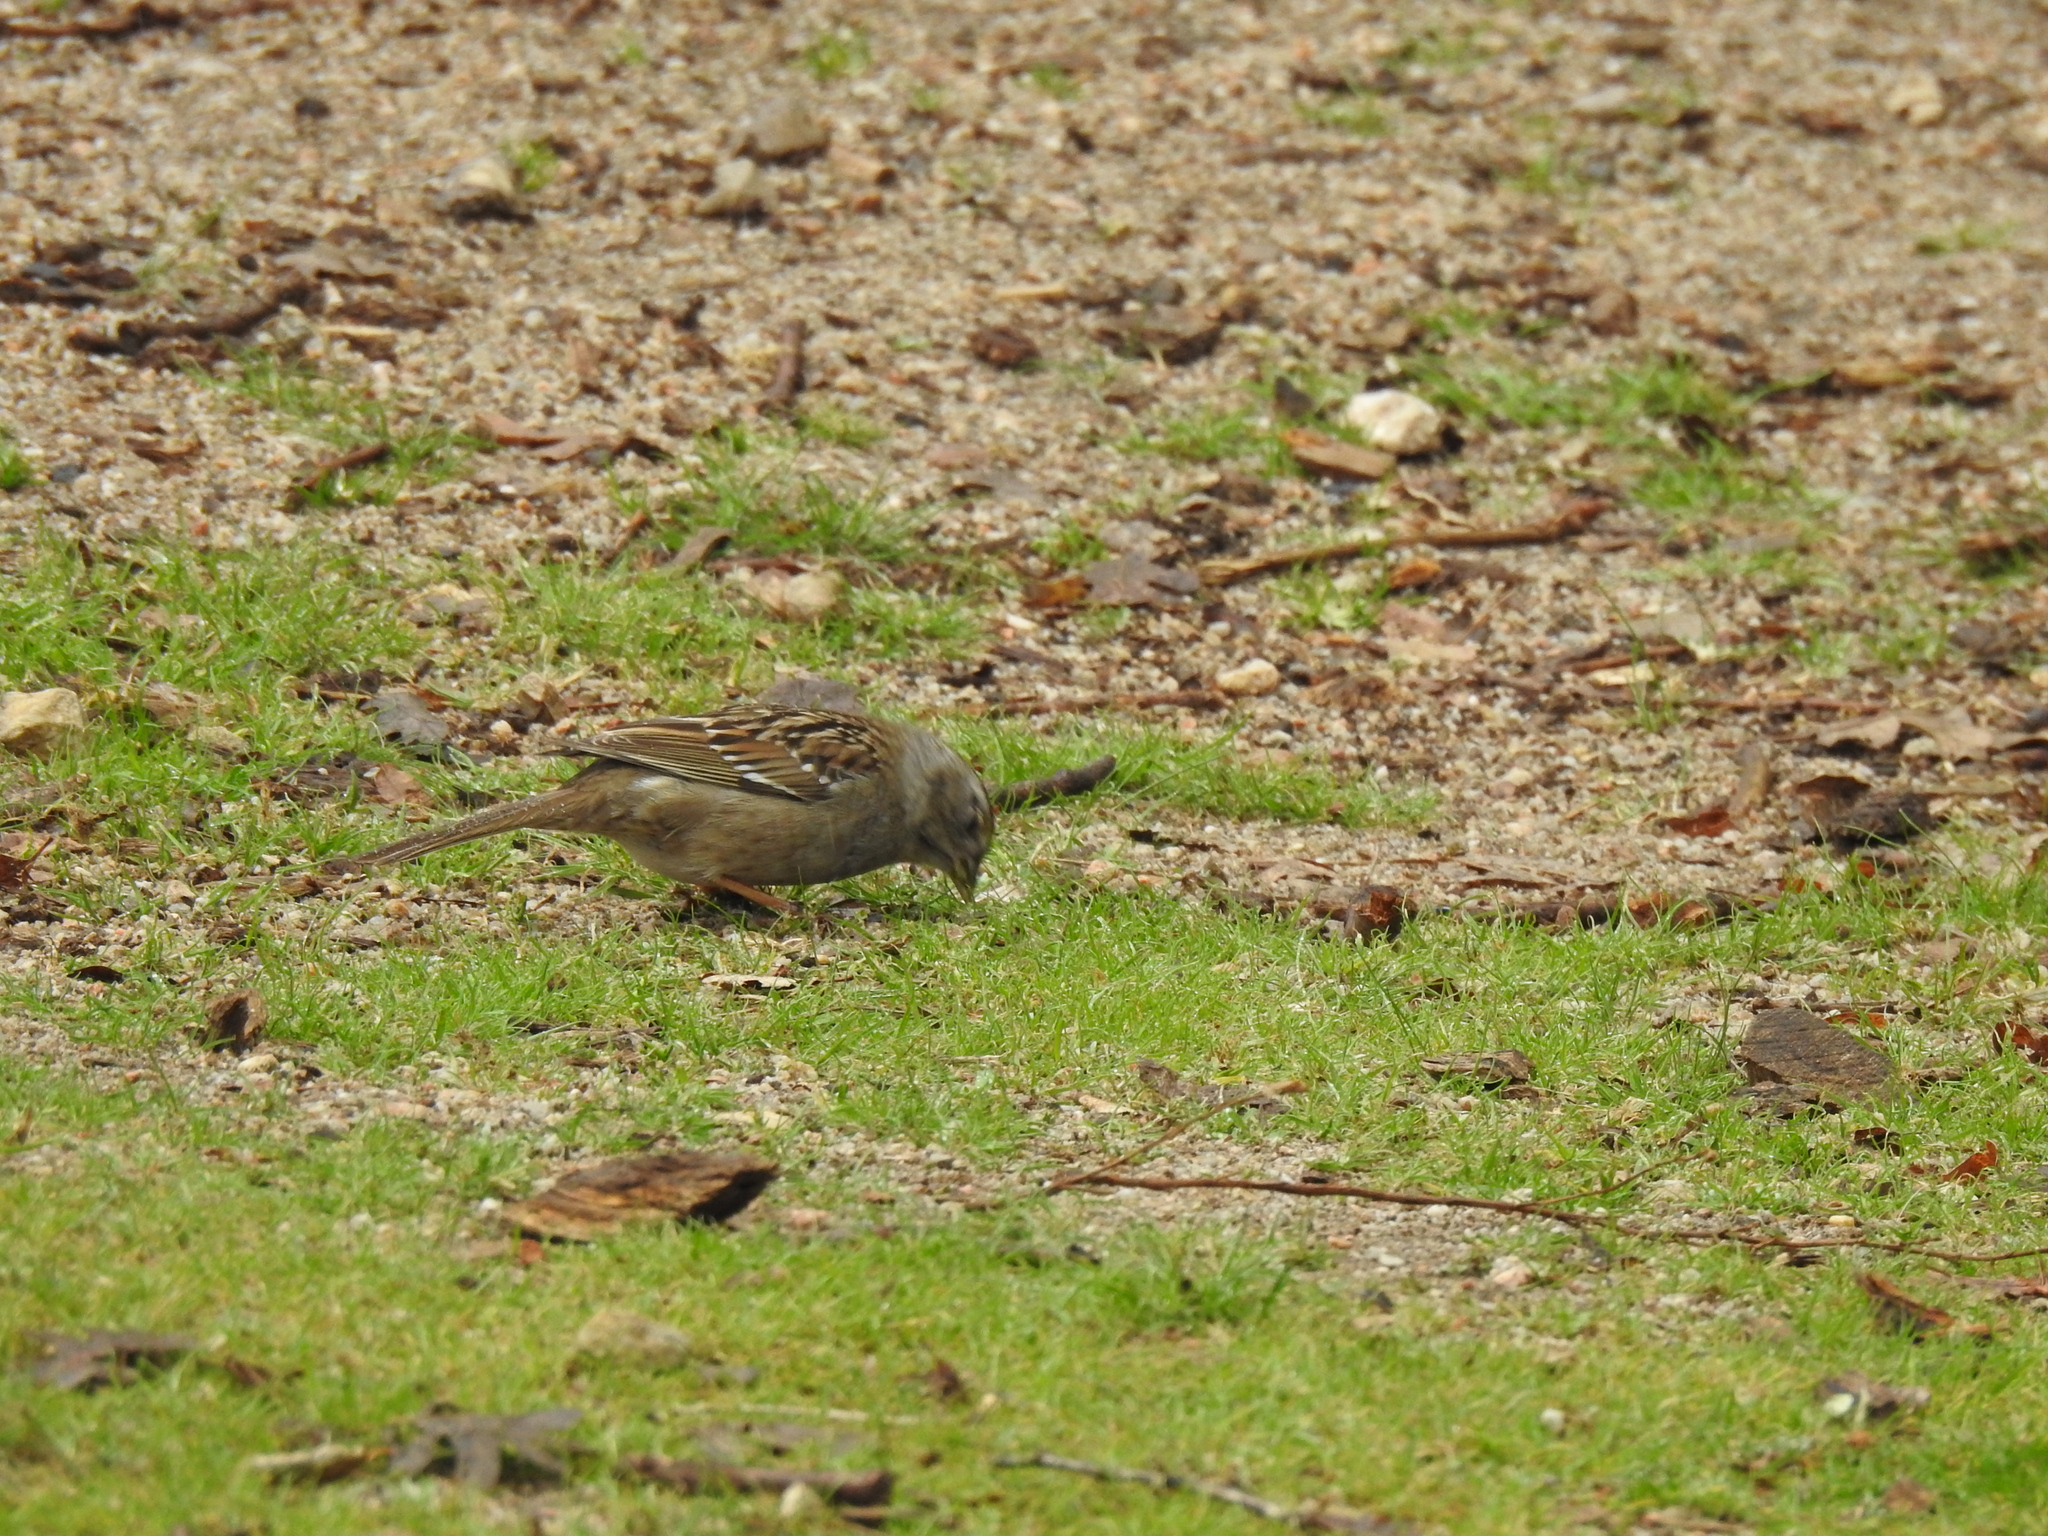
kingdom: Animalia
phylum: Chordata
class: Aves
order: Passeriformes
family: Passerellidae
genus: Zonotrichia
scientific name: Zonotrichia atricapilla
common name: Golden-crowned sparrow
